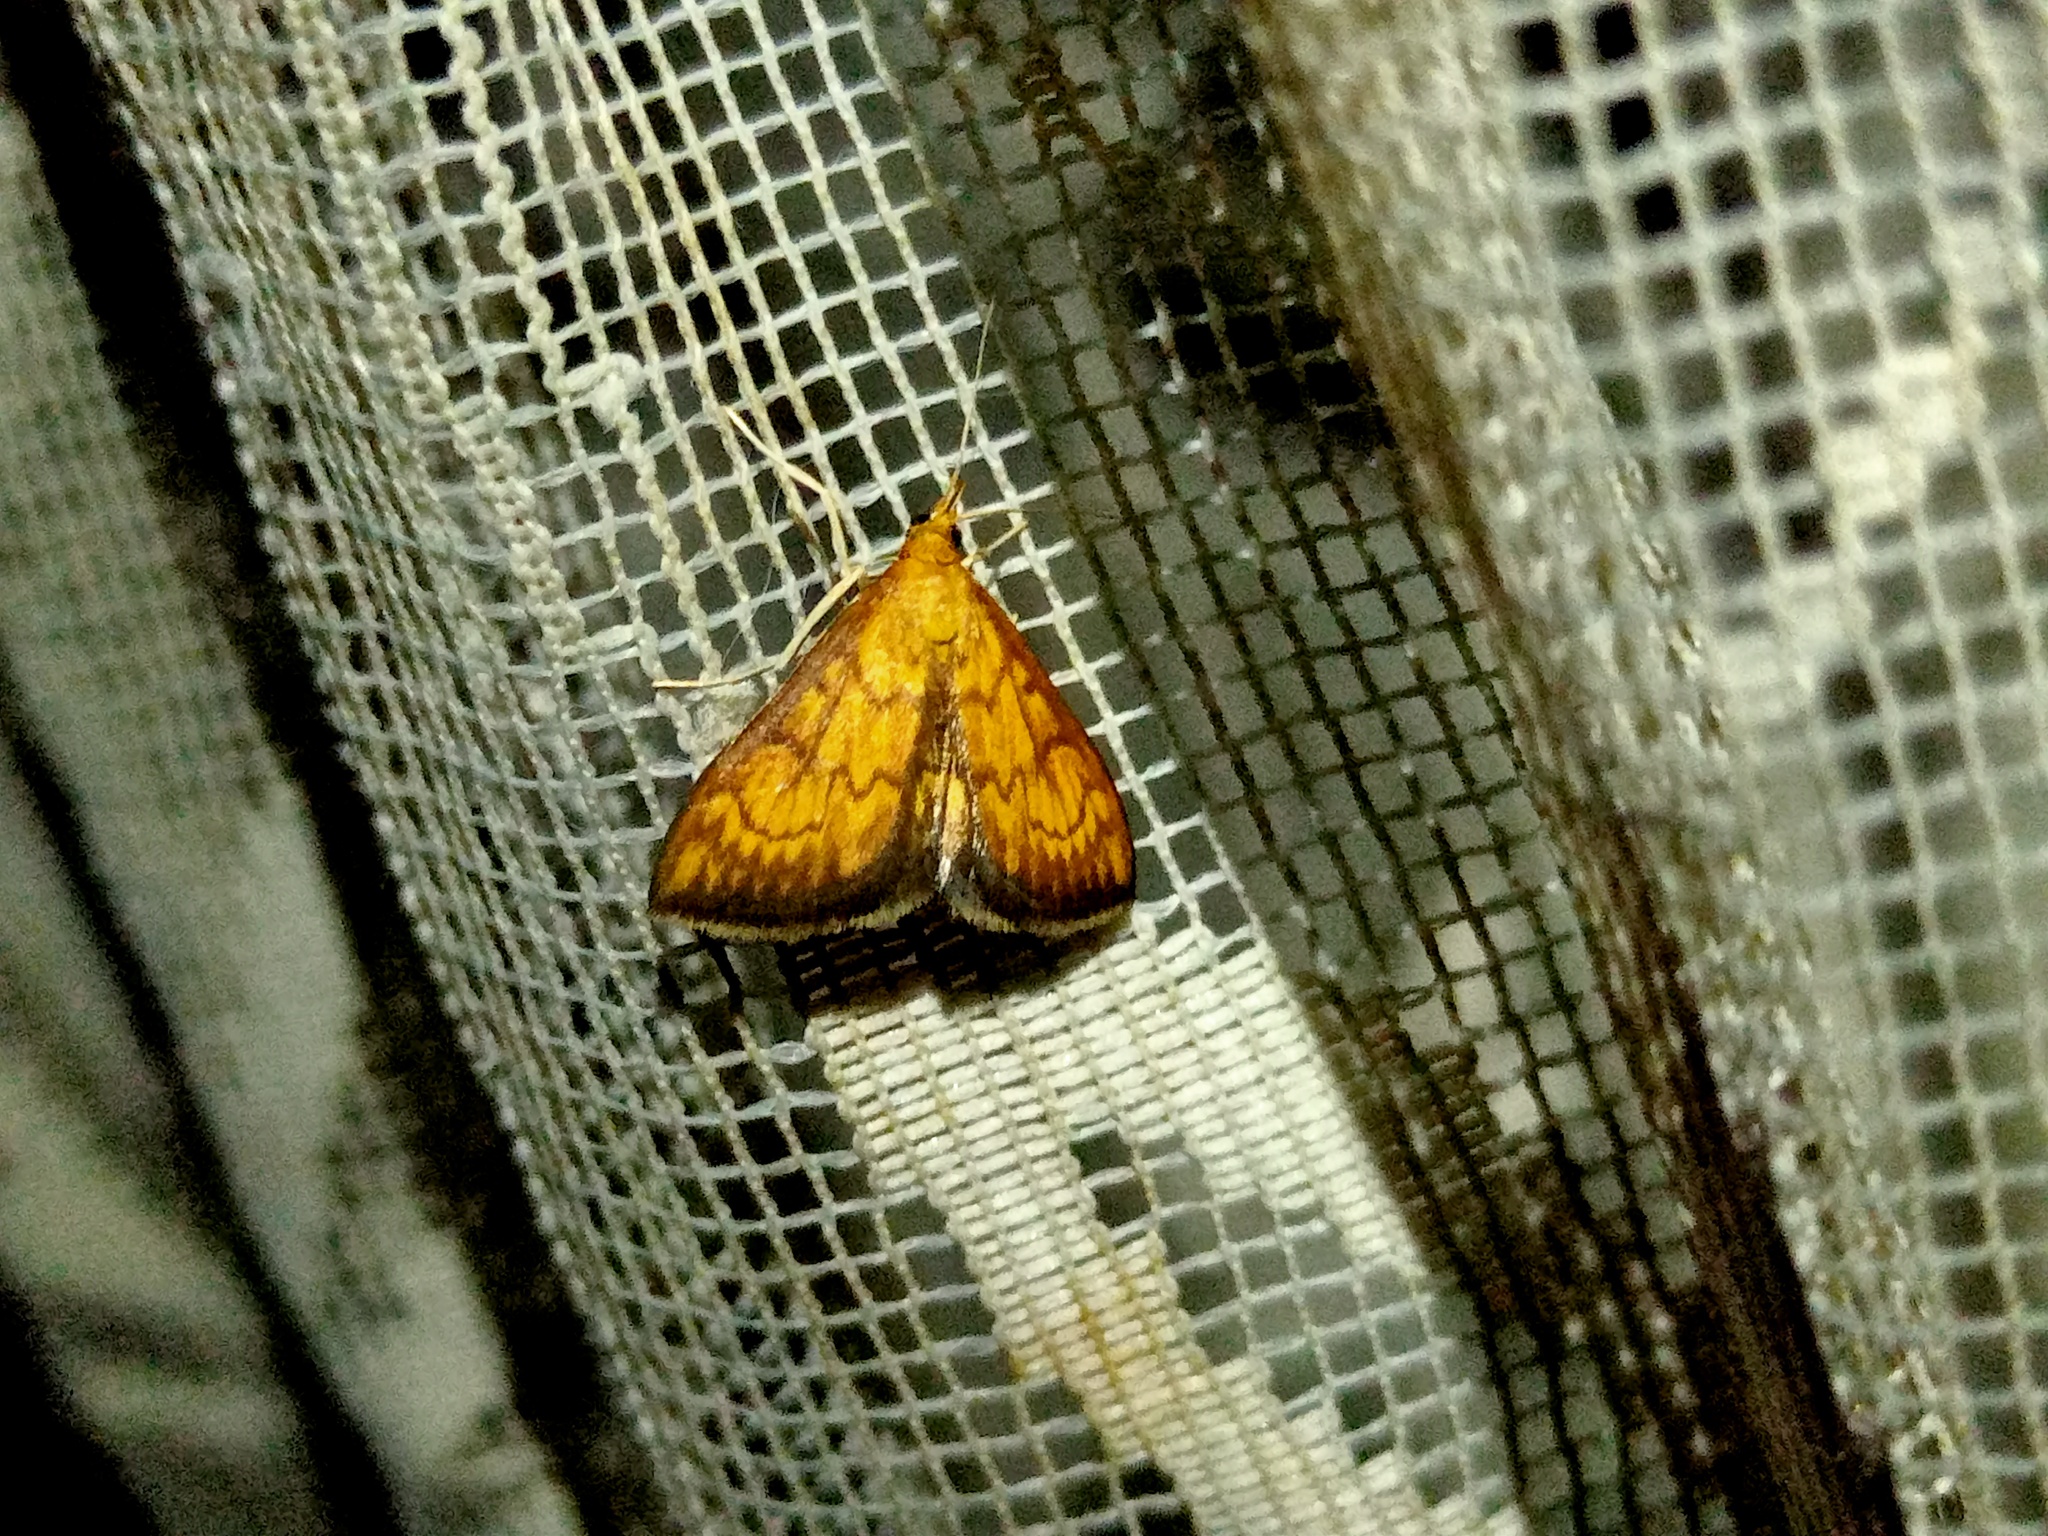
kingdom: Animalia
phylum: Arthropoda
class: Insecta
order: Lepidoptera
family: Crambidae
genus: Ecpyrrhorrhoe
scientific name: Ecpyrrhorrhoe rubiginalis
